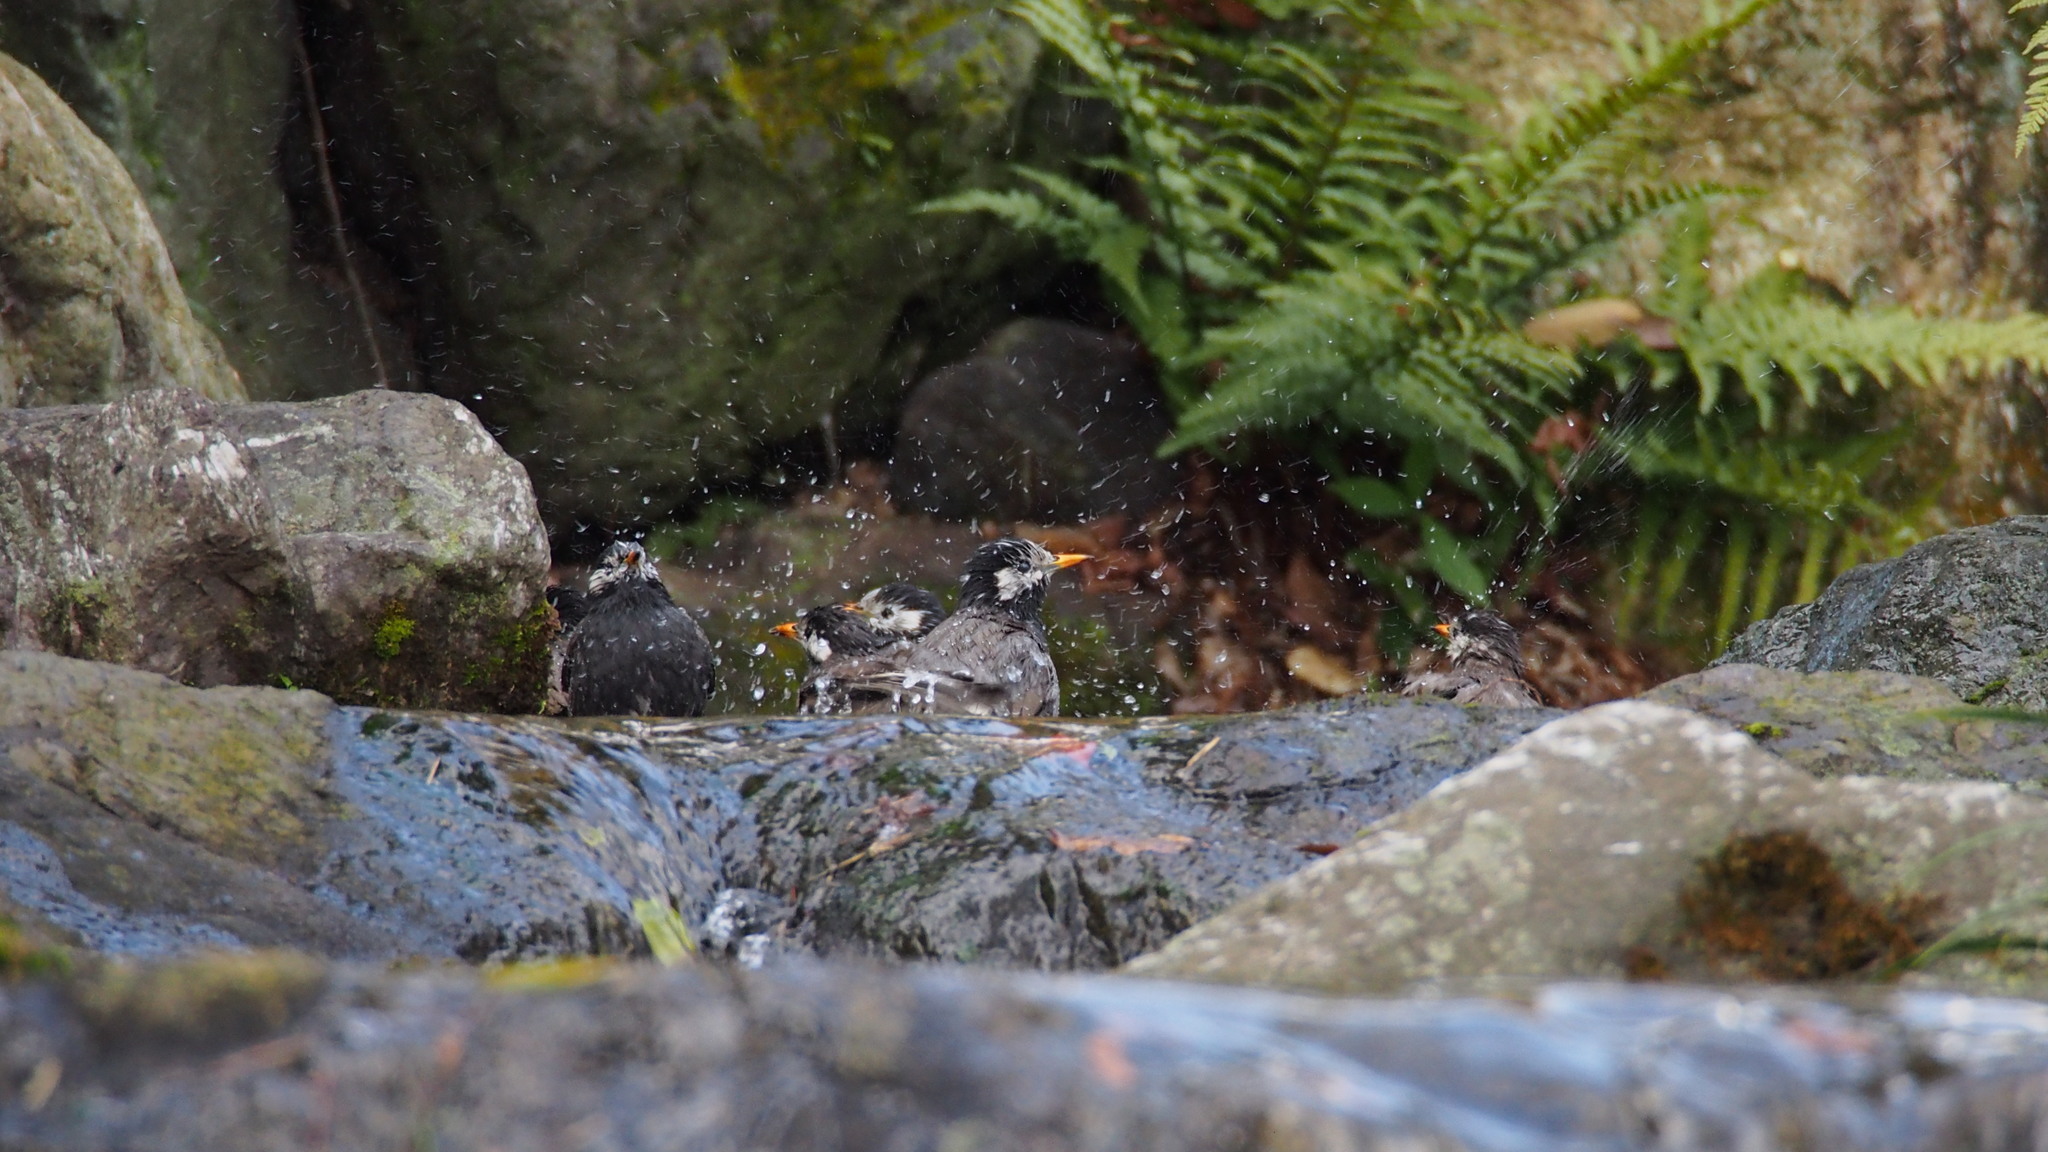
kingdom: Animalia
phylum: Chordata
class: Aves
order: Passeriformes
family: Sturnidae
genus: Spodiopsar
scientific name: Spodiopsar cineraceus
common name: White-cheeked starling
